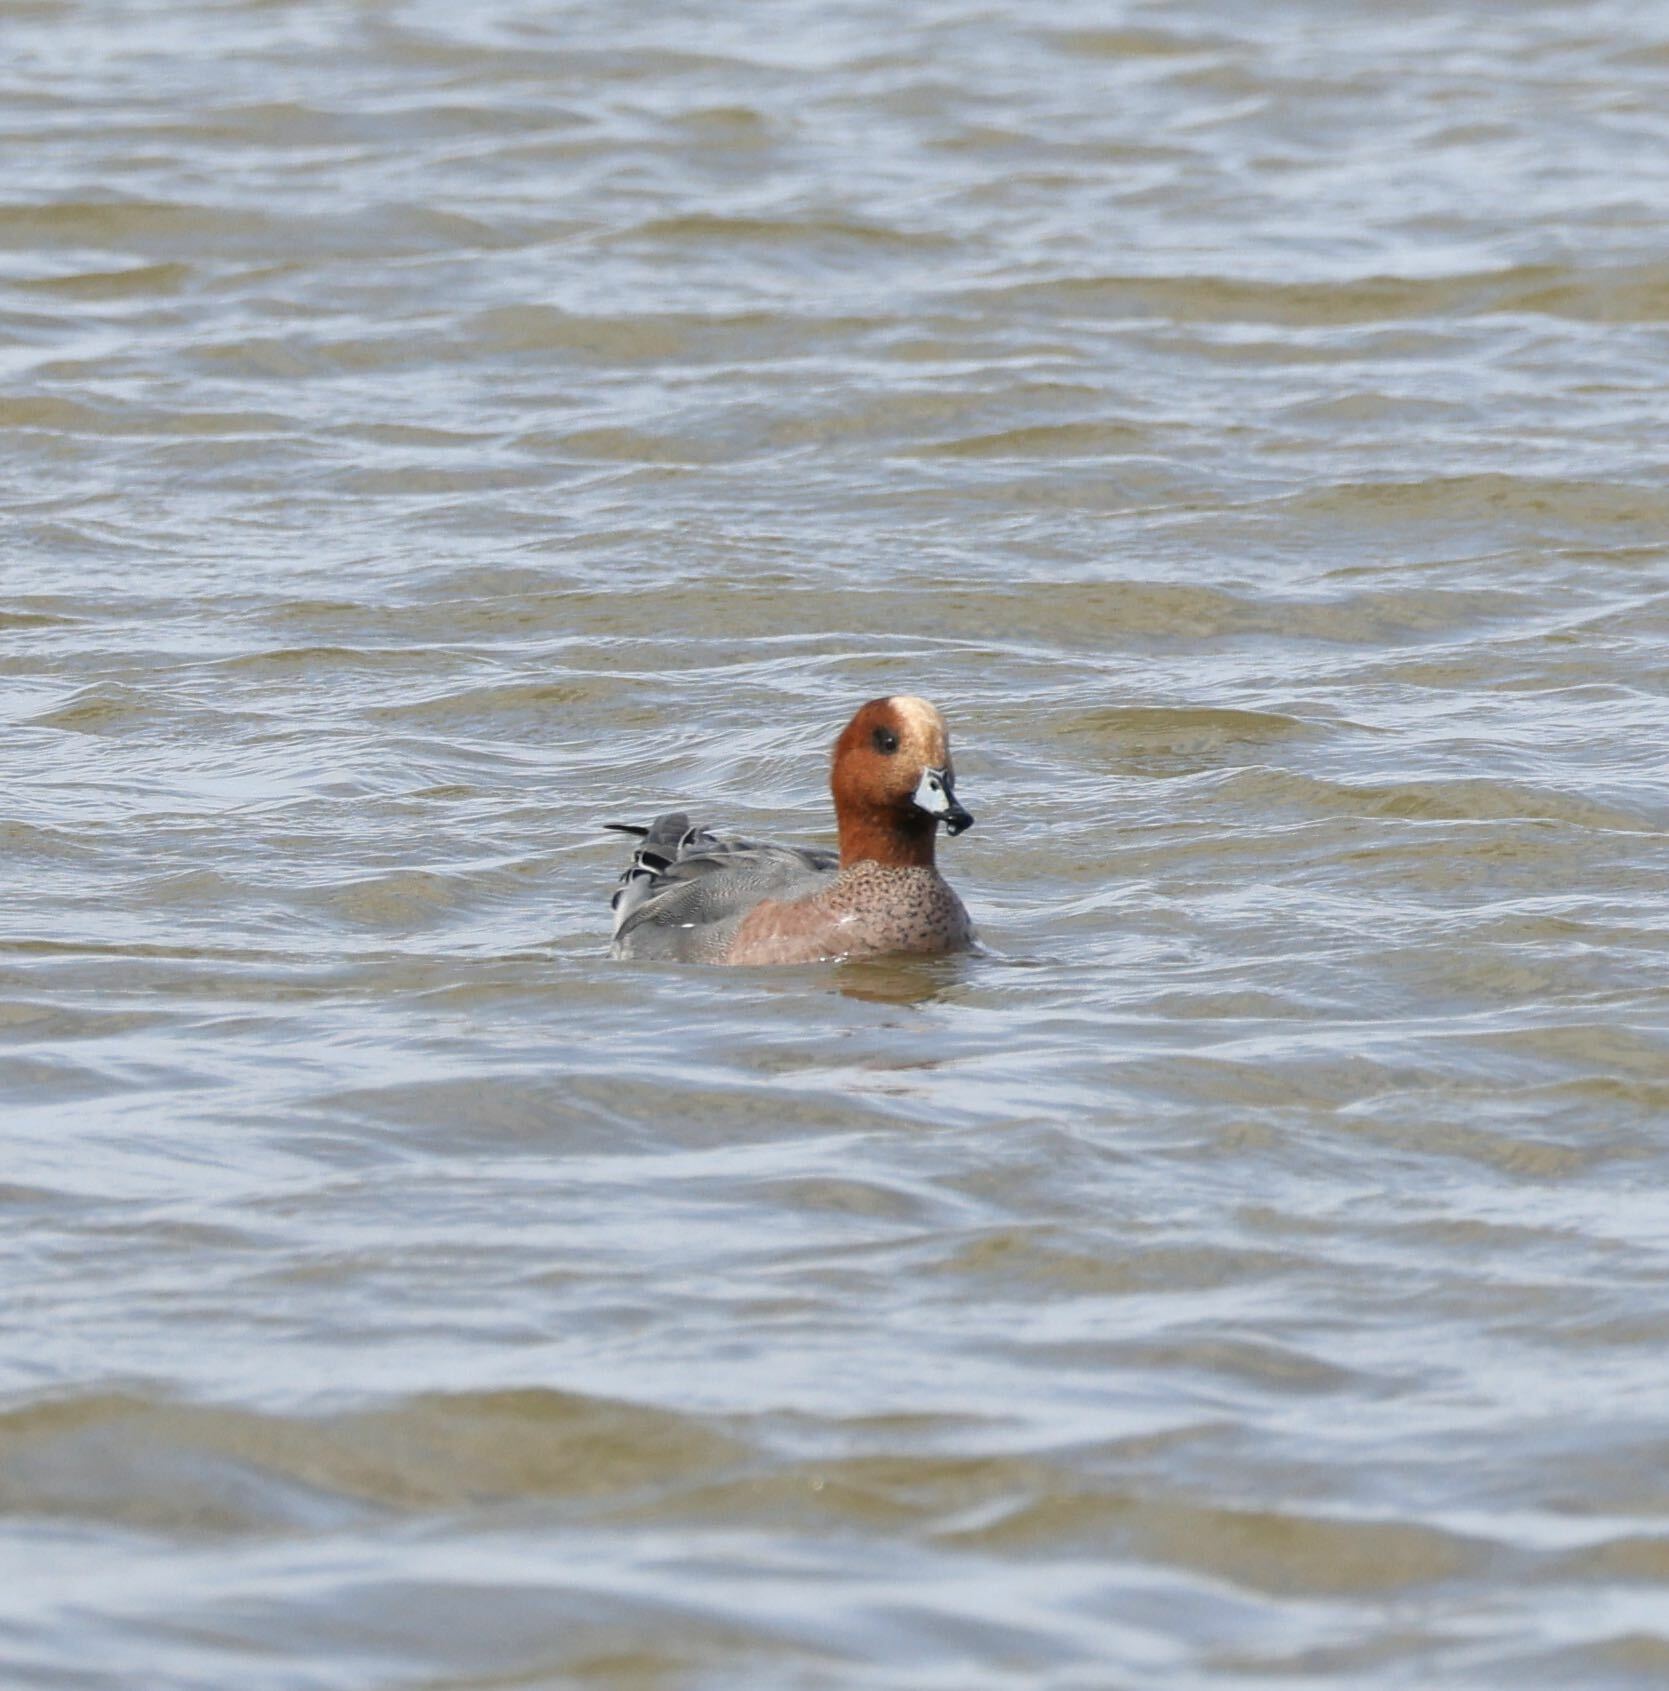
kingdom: Animalia
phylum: Chordata
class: Aves
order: Anseriformes
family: Anatidae
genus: Mareca
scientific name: Mareca penelope
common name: Eurasian wigeon
